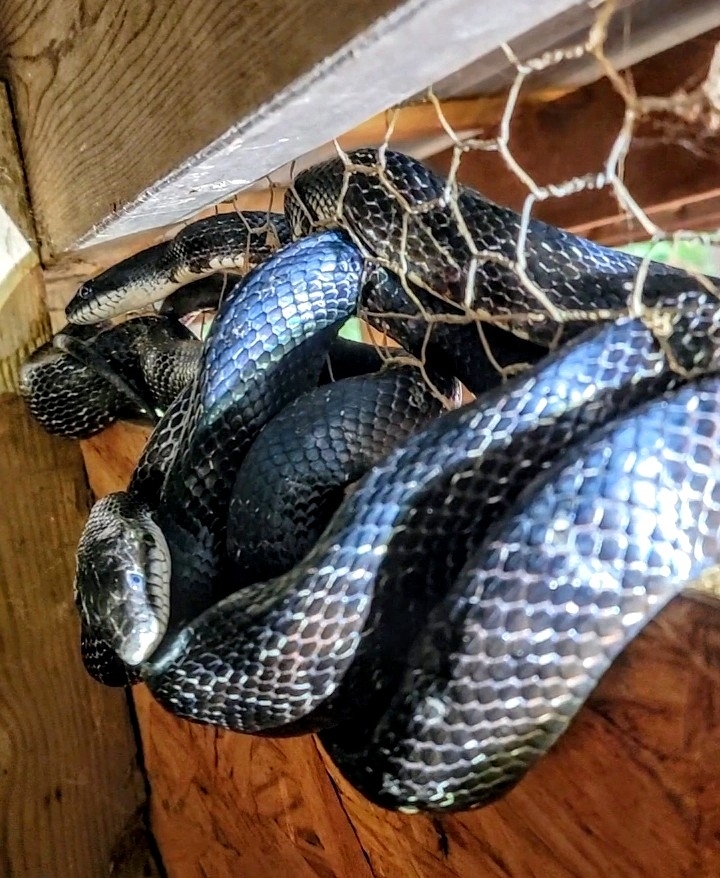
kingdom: Animalia
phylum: Chordata
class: Squamata
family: Colubridae
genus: Pantherophis
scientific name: Pantherophis alleghaniensis
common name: Eastern rat snake
